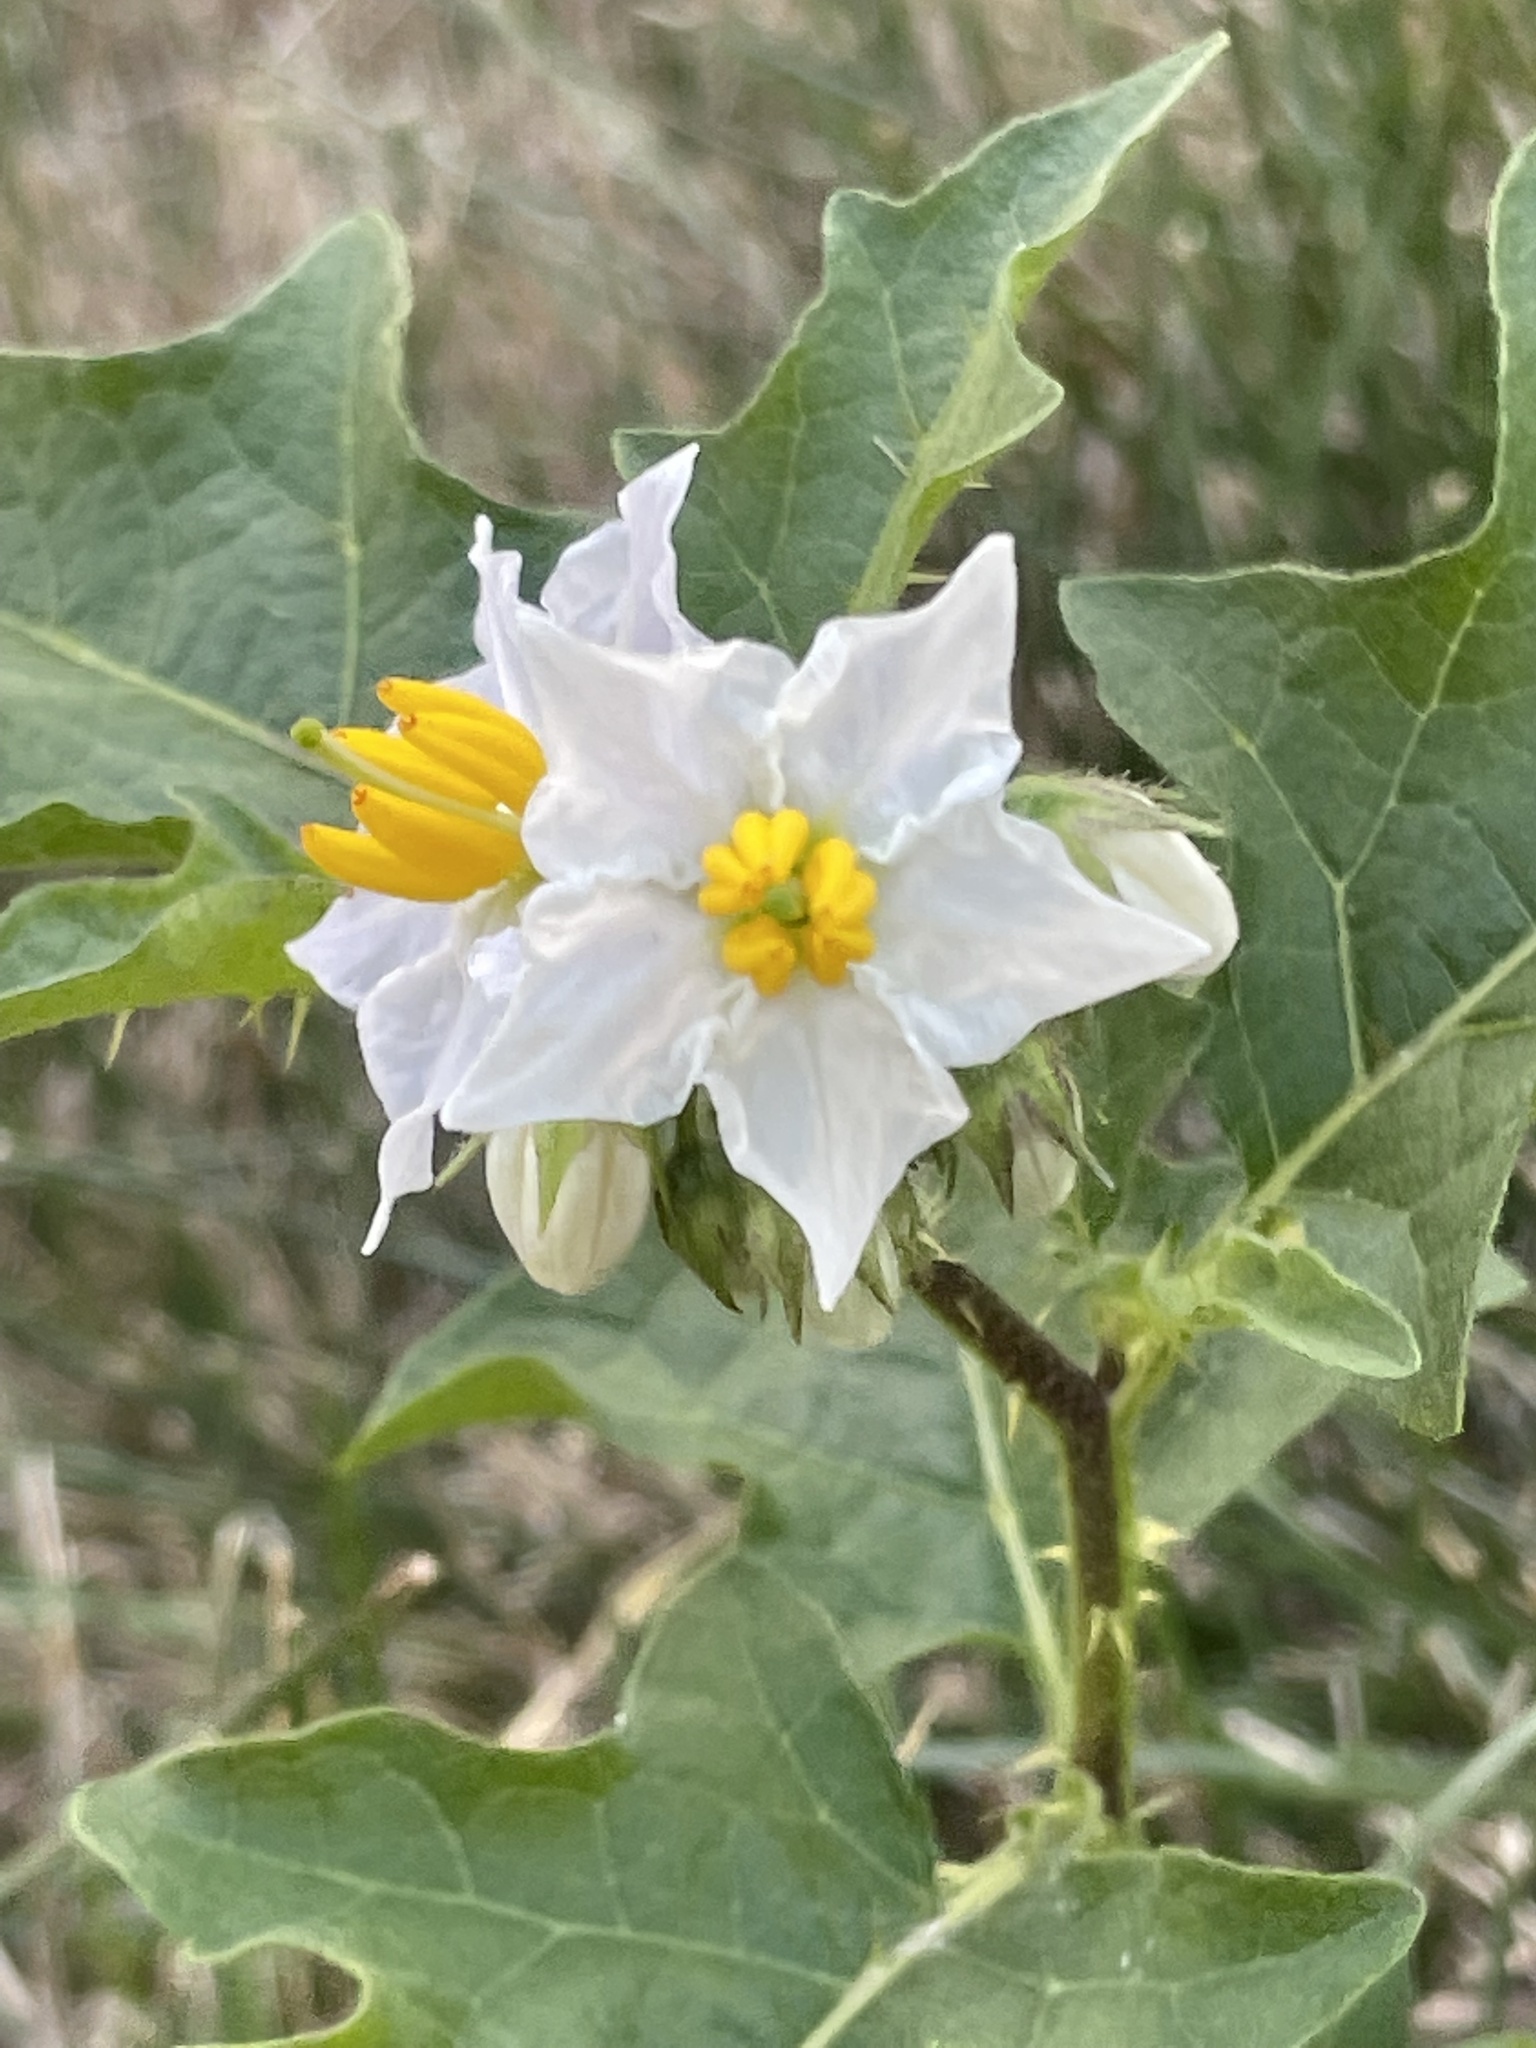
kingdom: Plantae
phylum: Tracheophyta
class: Magnoliopsida
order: Solanales
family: Solanaceae
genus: Solanum
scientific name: Solanum carolinense
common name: Horse-nettle
